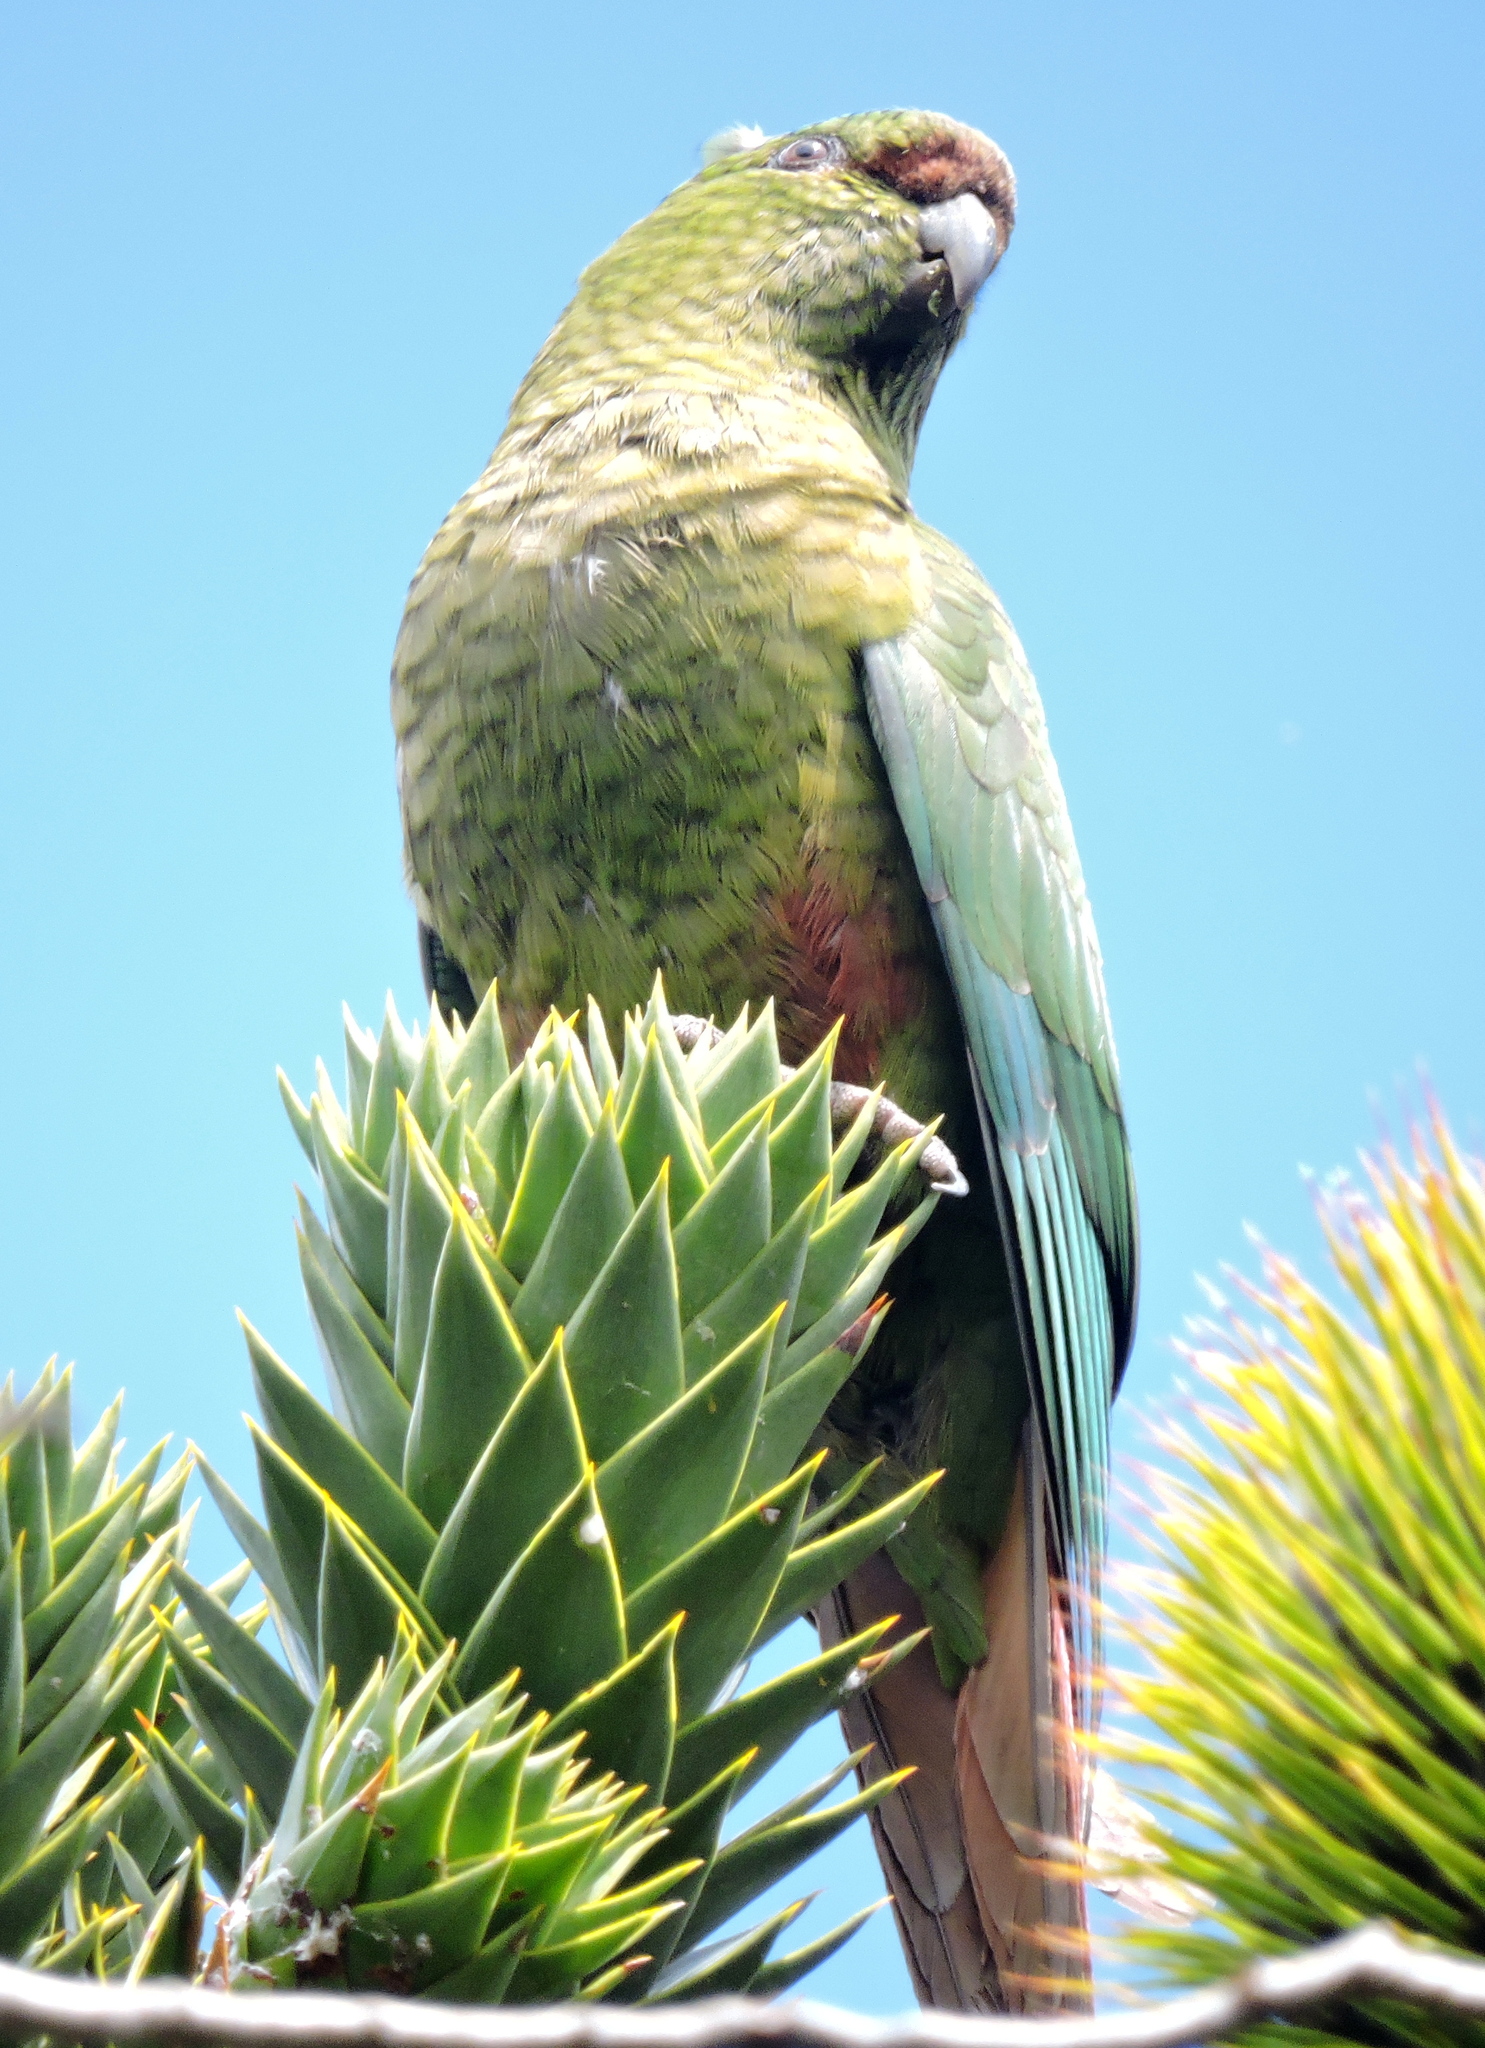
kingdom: Animalia
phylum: Chordata
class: Aves
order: Psittaciformes
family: Psittacidae
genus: Enicognathus
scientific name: Enicognathus ferrugineus
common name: Austral parakeet
